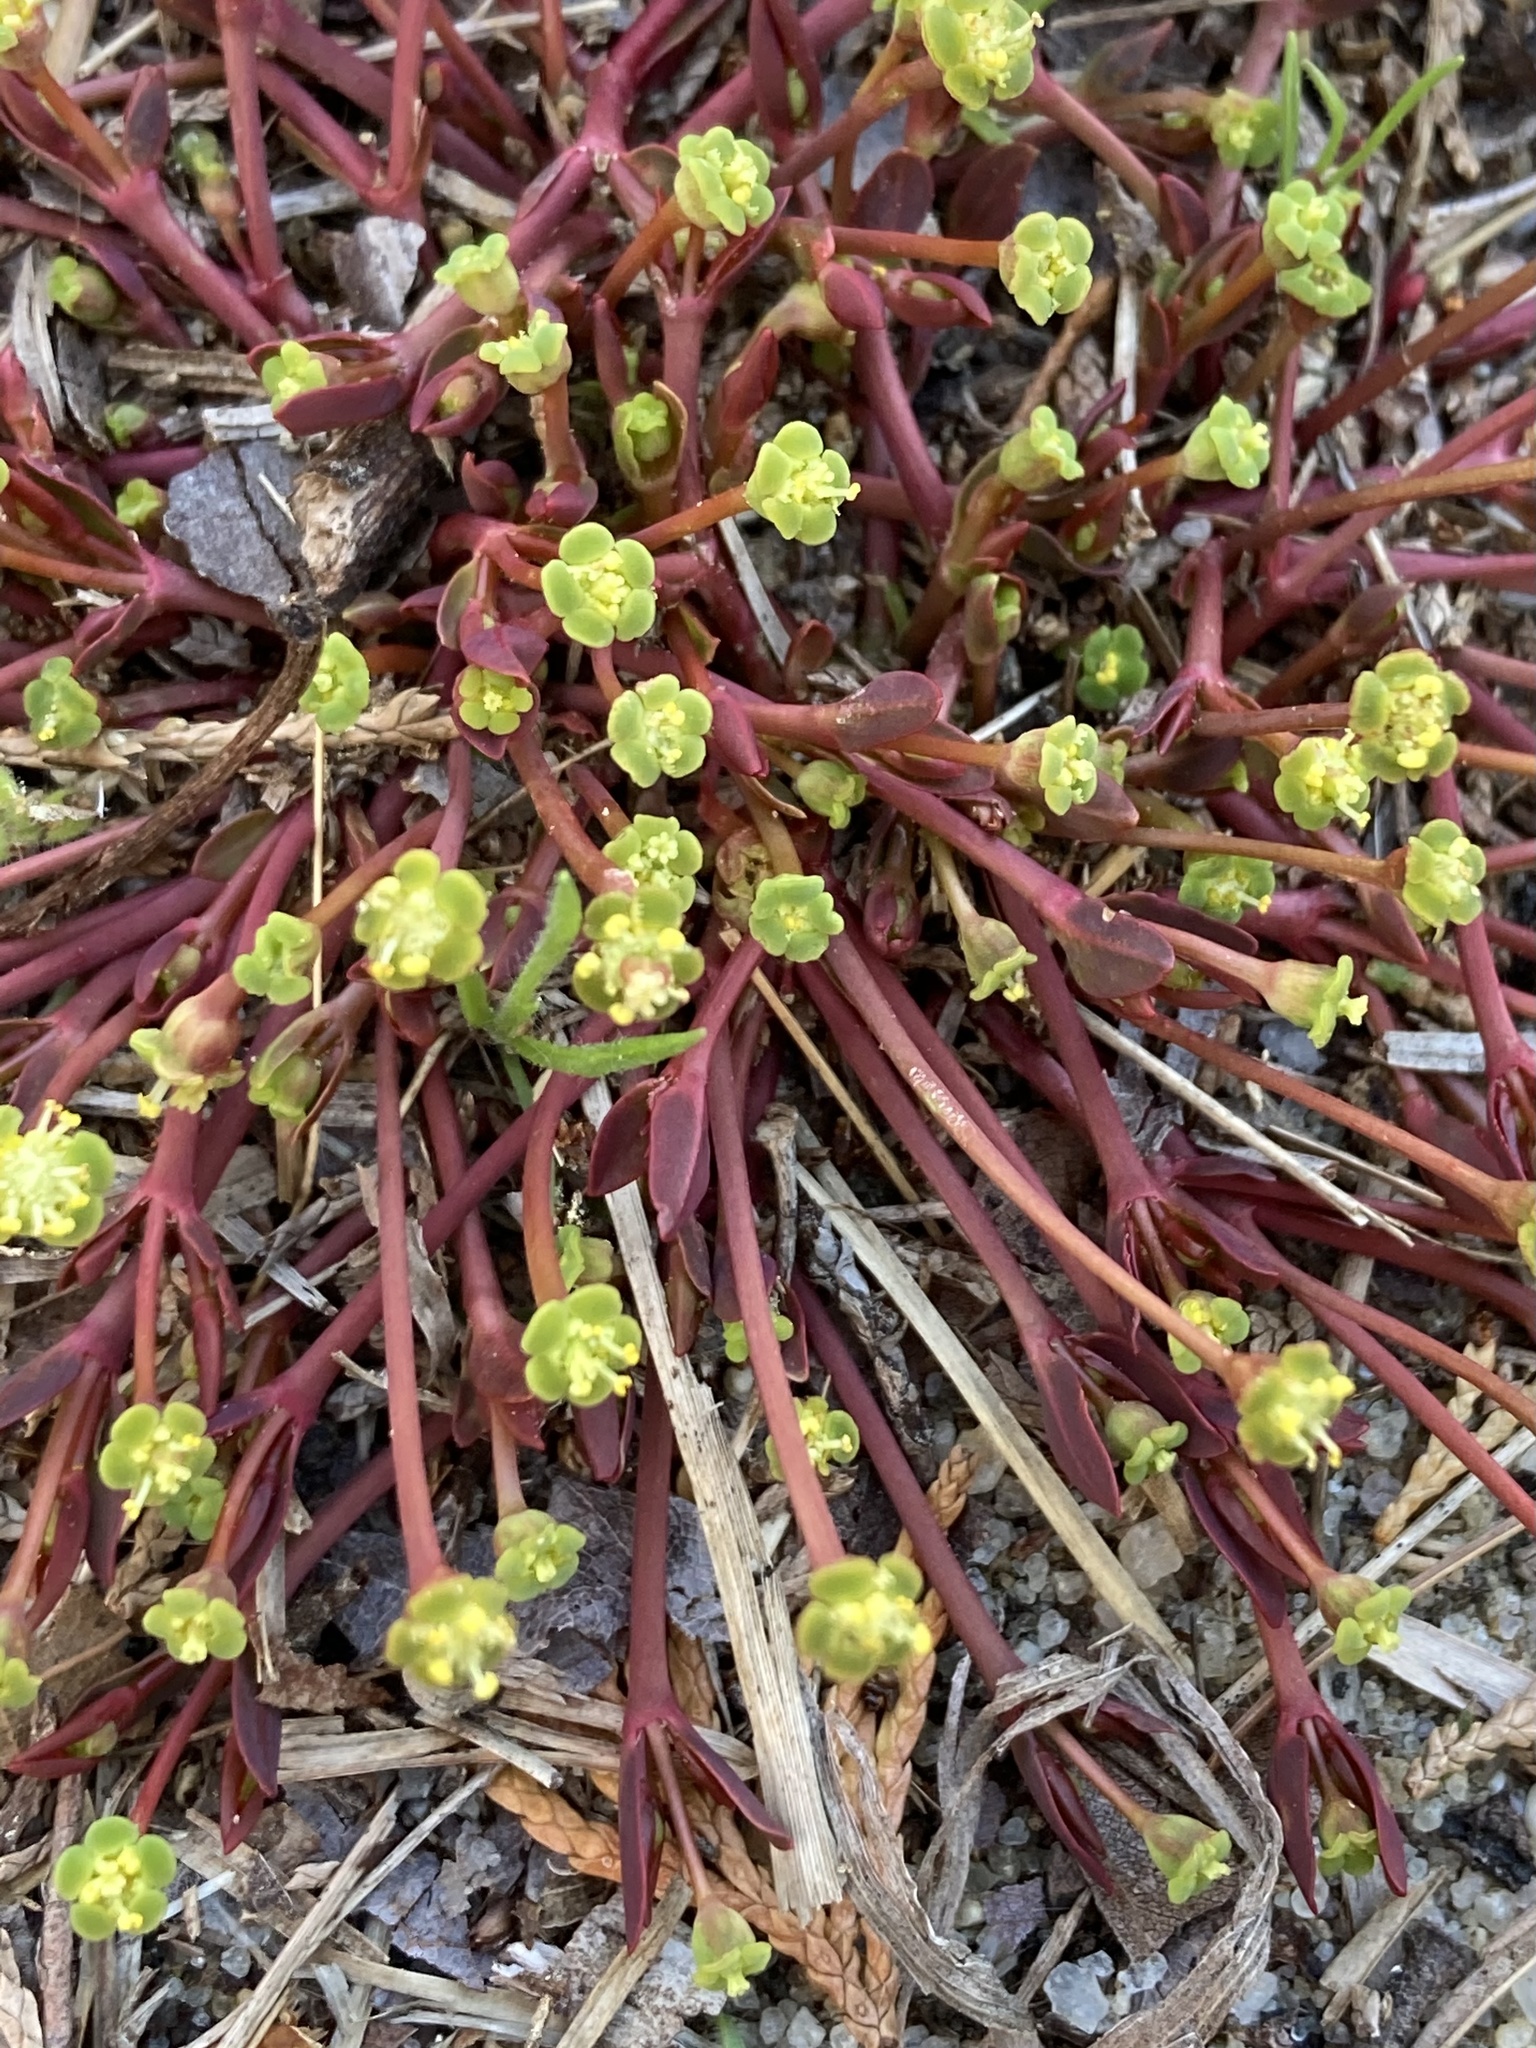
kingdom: Plantae
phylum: Tracheophyta
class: Magnoliopsida
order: Malpighiales
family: Euphorbiaceae
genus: Euphorbia
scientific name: Euphorbia ipecacuanhae
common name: Carolina ipecac
